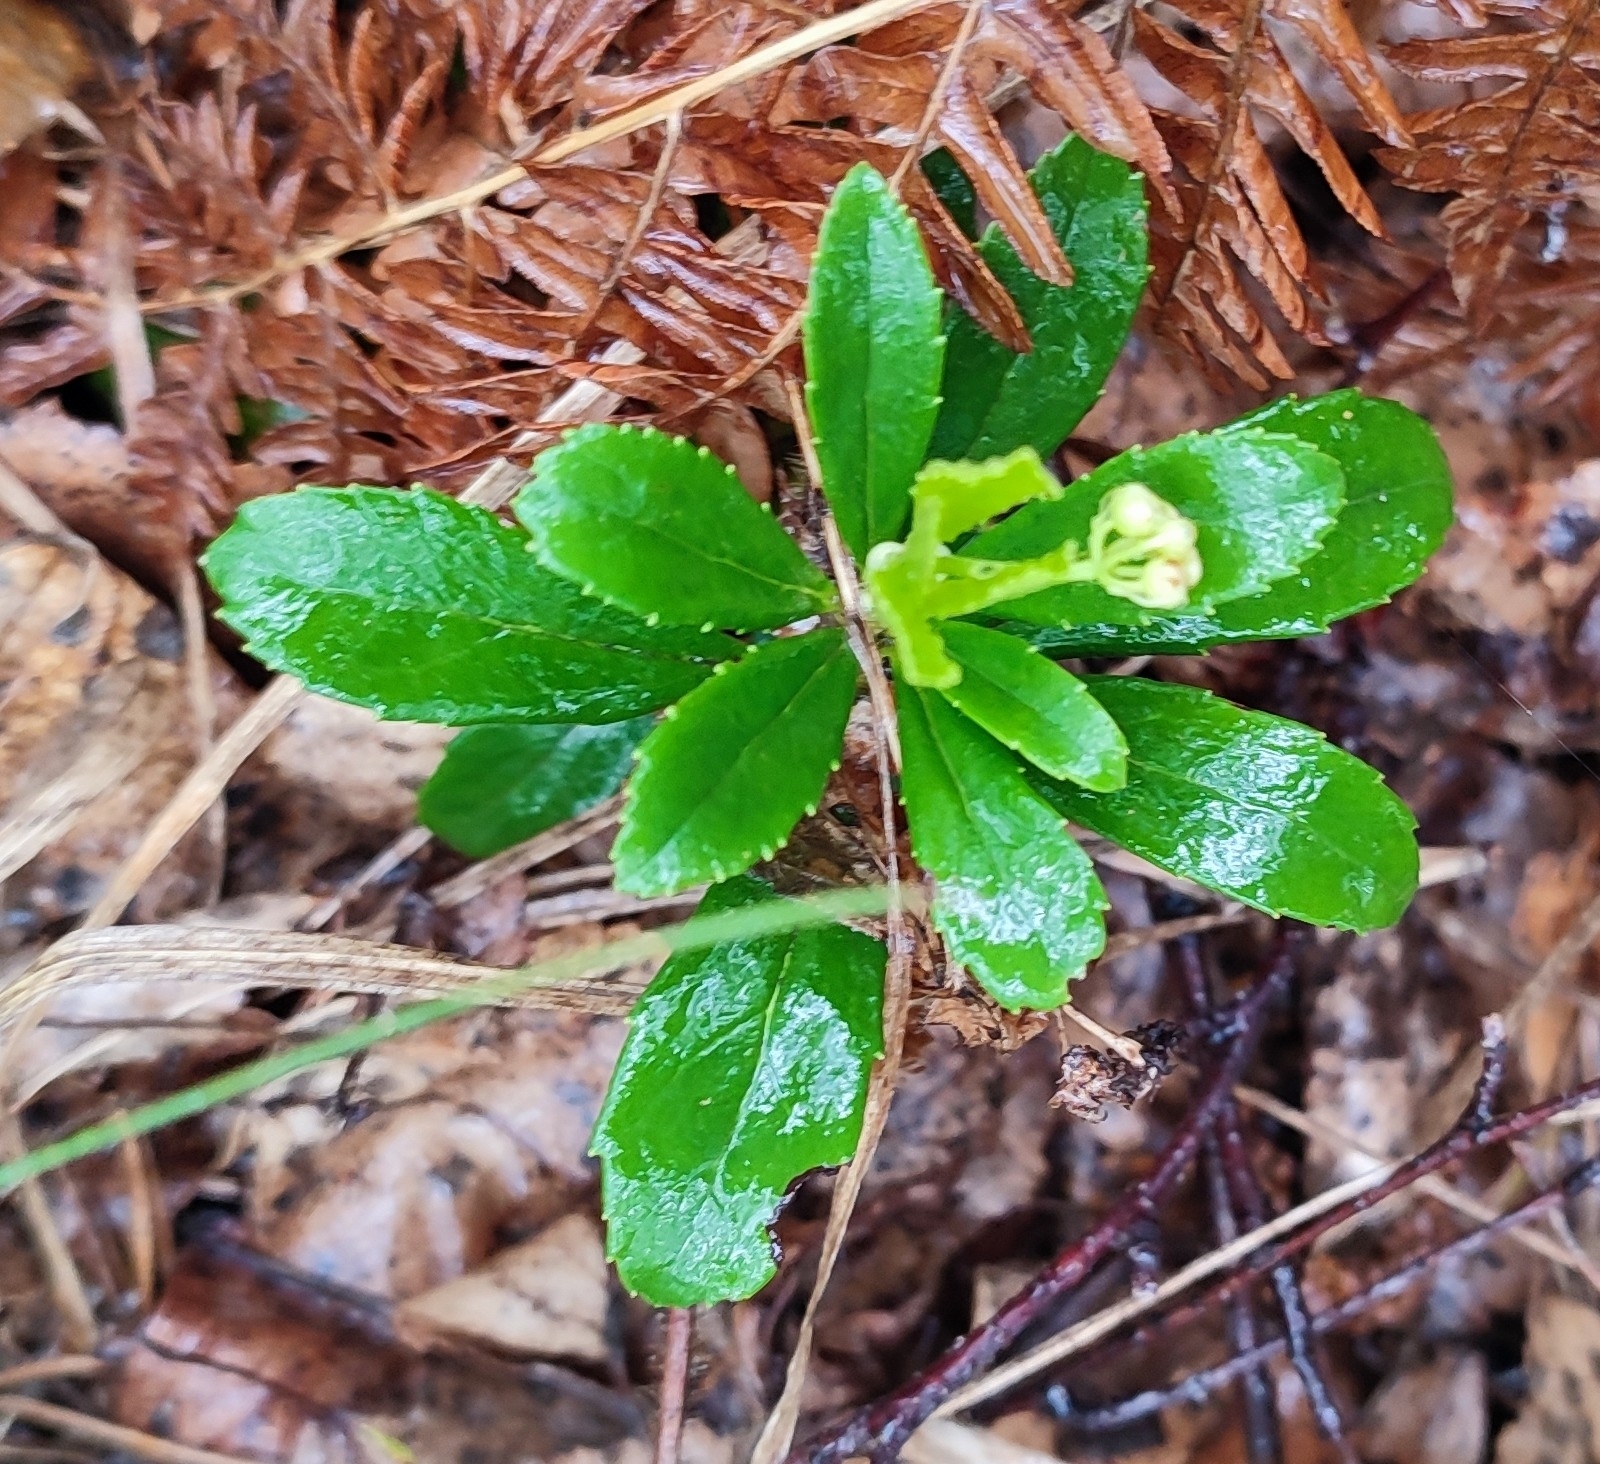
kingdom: Plantae
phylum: Tracheophyta
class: Magnoliopsida
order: Ericales
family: Ericaceae
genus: Chimaphila
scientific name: Chimaphila umbellata
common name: Pipsissewa
